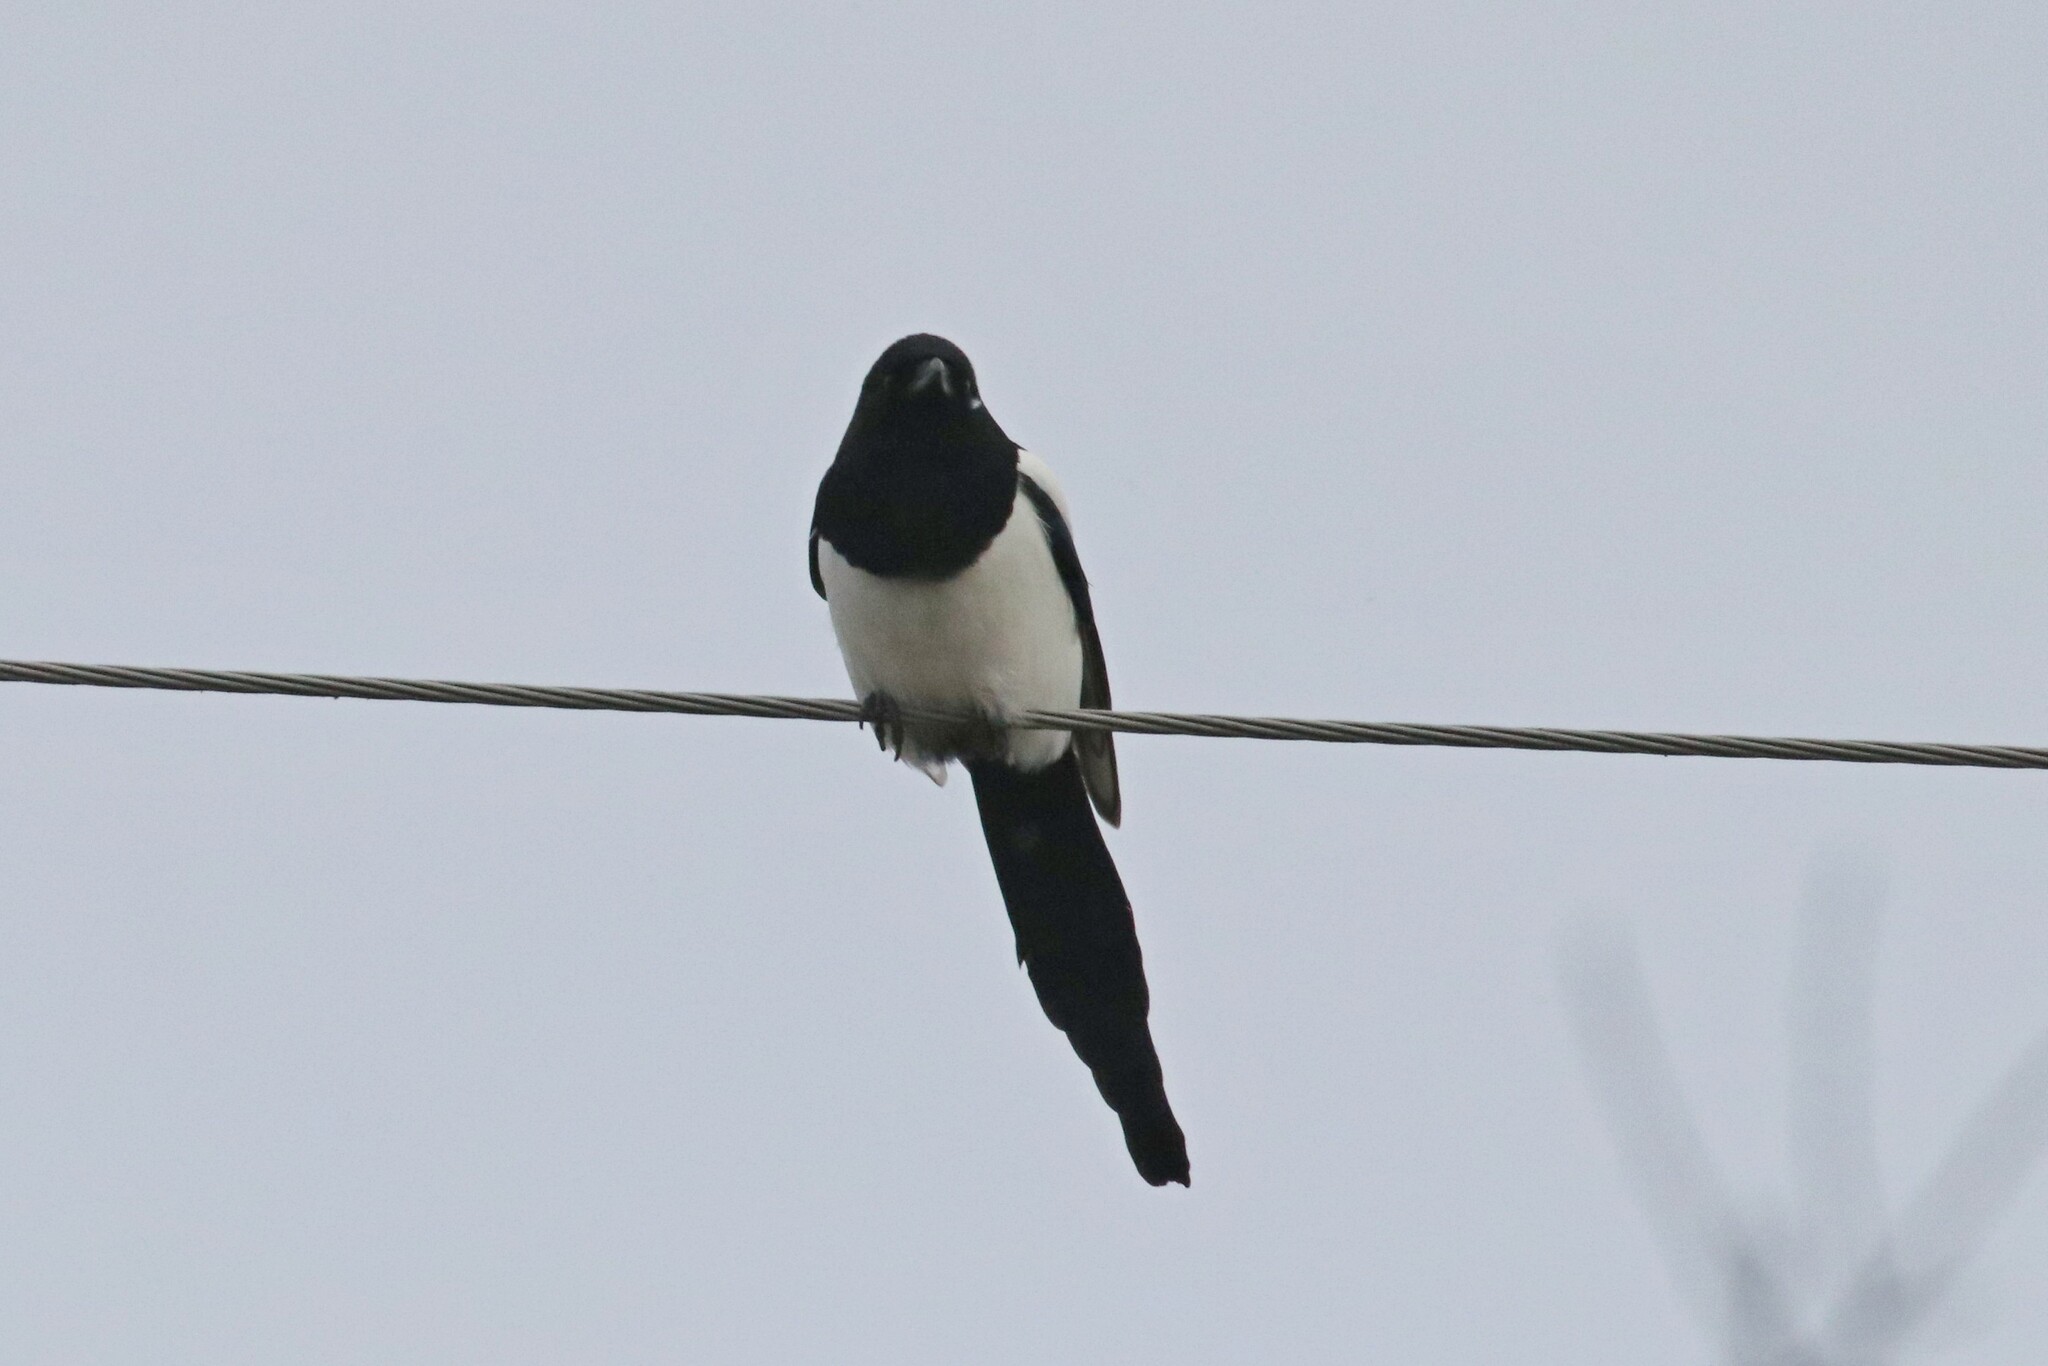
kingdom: Animalia
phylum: Chordata
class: Aves
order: Passeriformes
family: Corvidae
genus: Pica
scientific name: Pica pica
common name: Eurasian magpie
